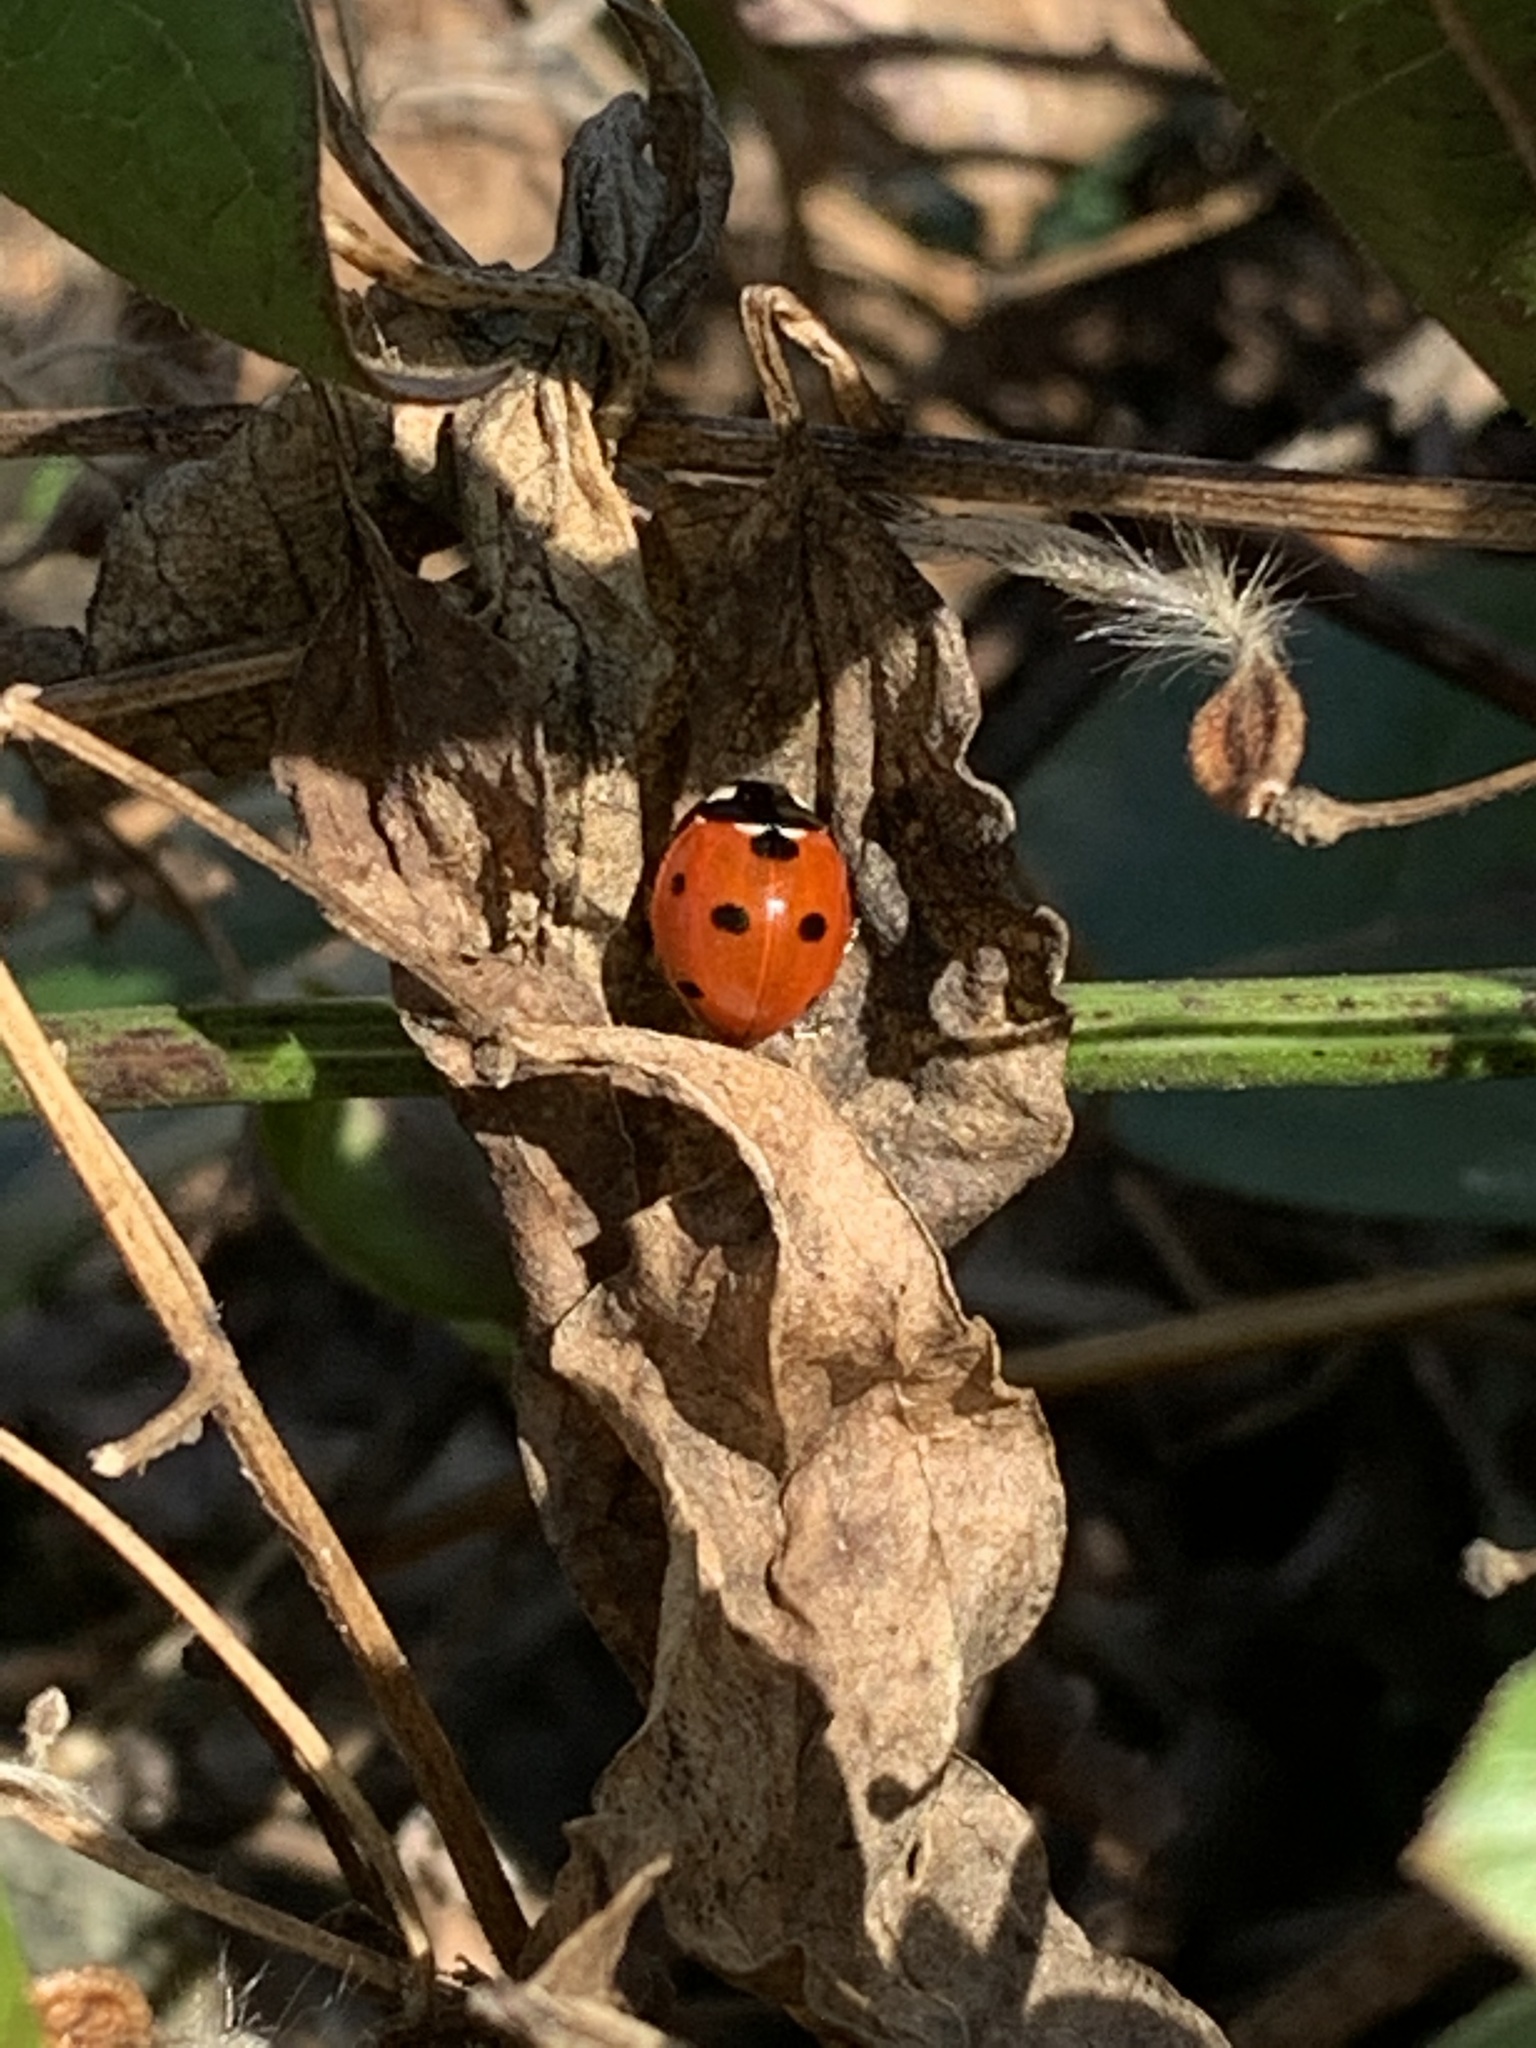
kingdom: Animalia
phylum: Arthropoda
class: Insecta
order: Coleoptera
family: Coccinellidae
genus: Coccinella
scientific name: Coccinella septempunctata
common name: Sevenspotted lady beetle
